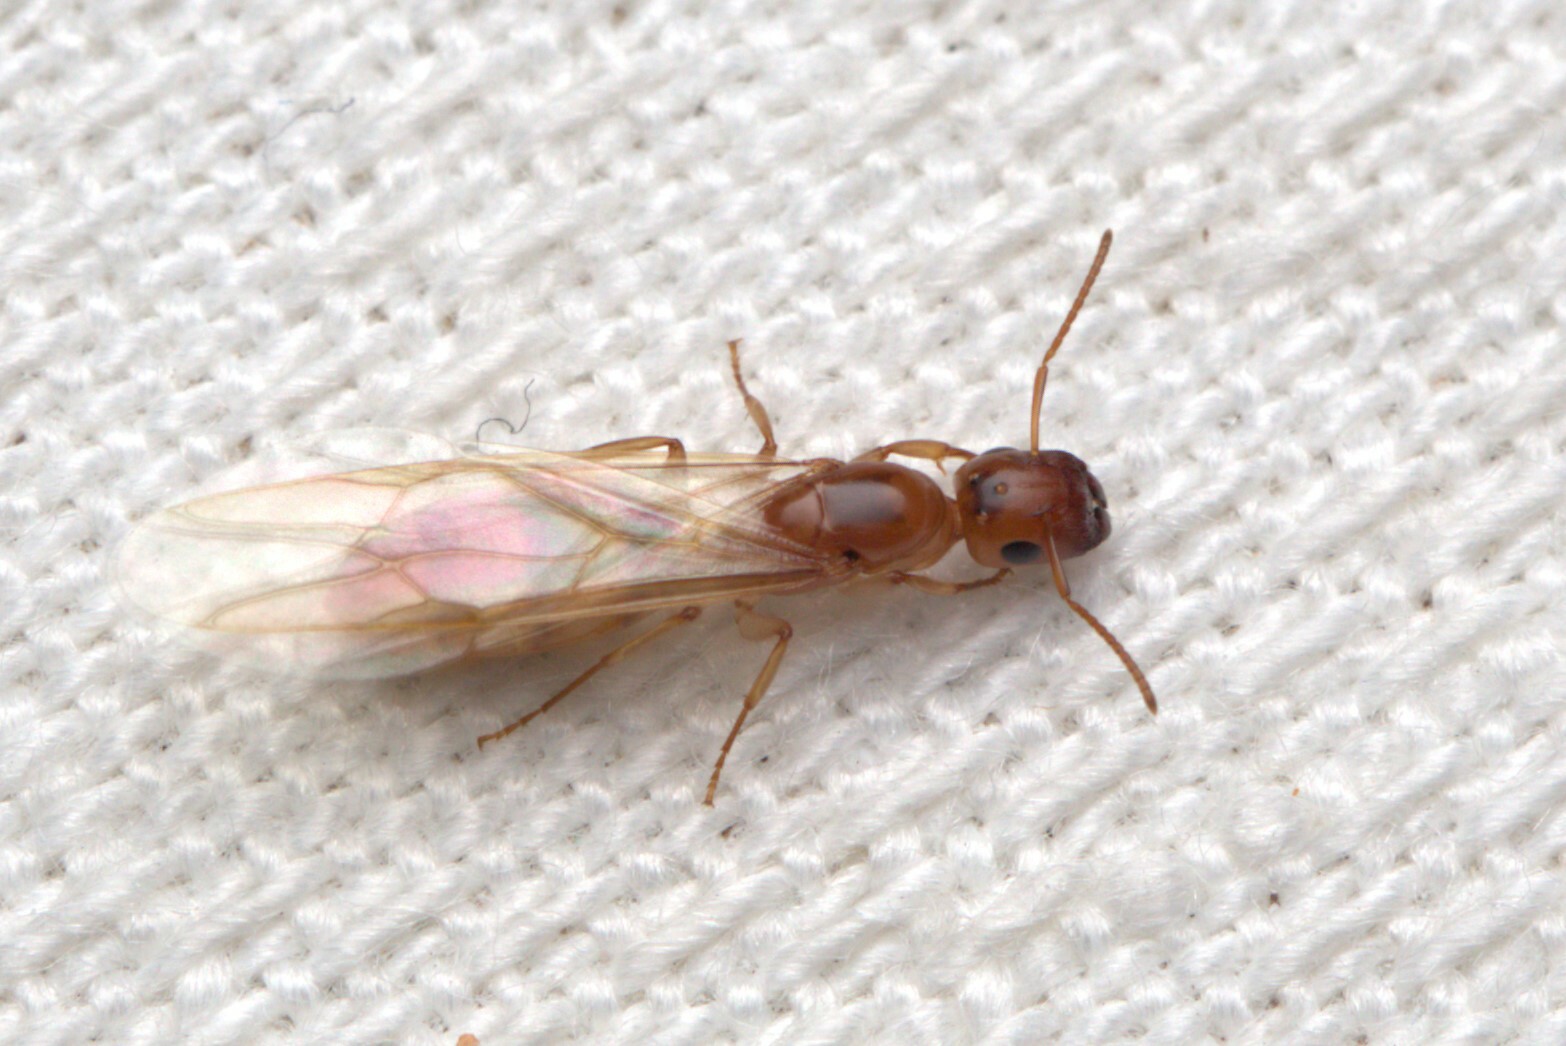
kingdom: Animalia
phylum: Arthropoda
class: Insecta
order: Hymenoptera
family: Formicidae
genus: Colobopsis
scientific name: Colobopsis
